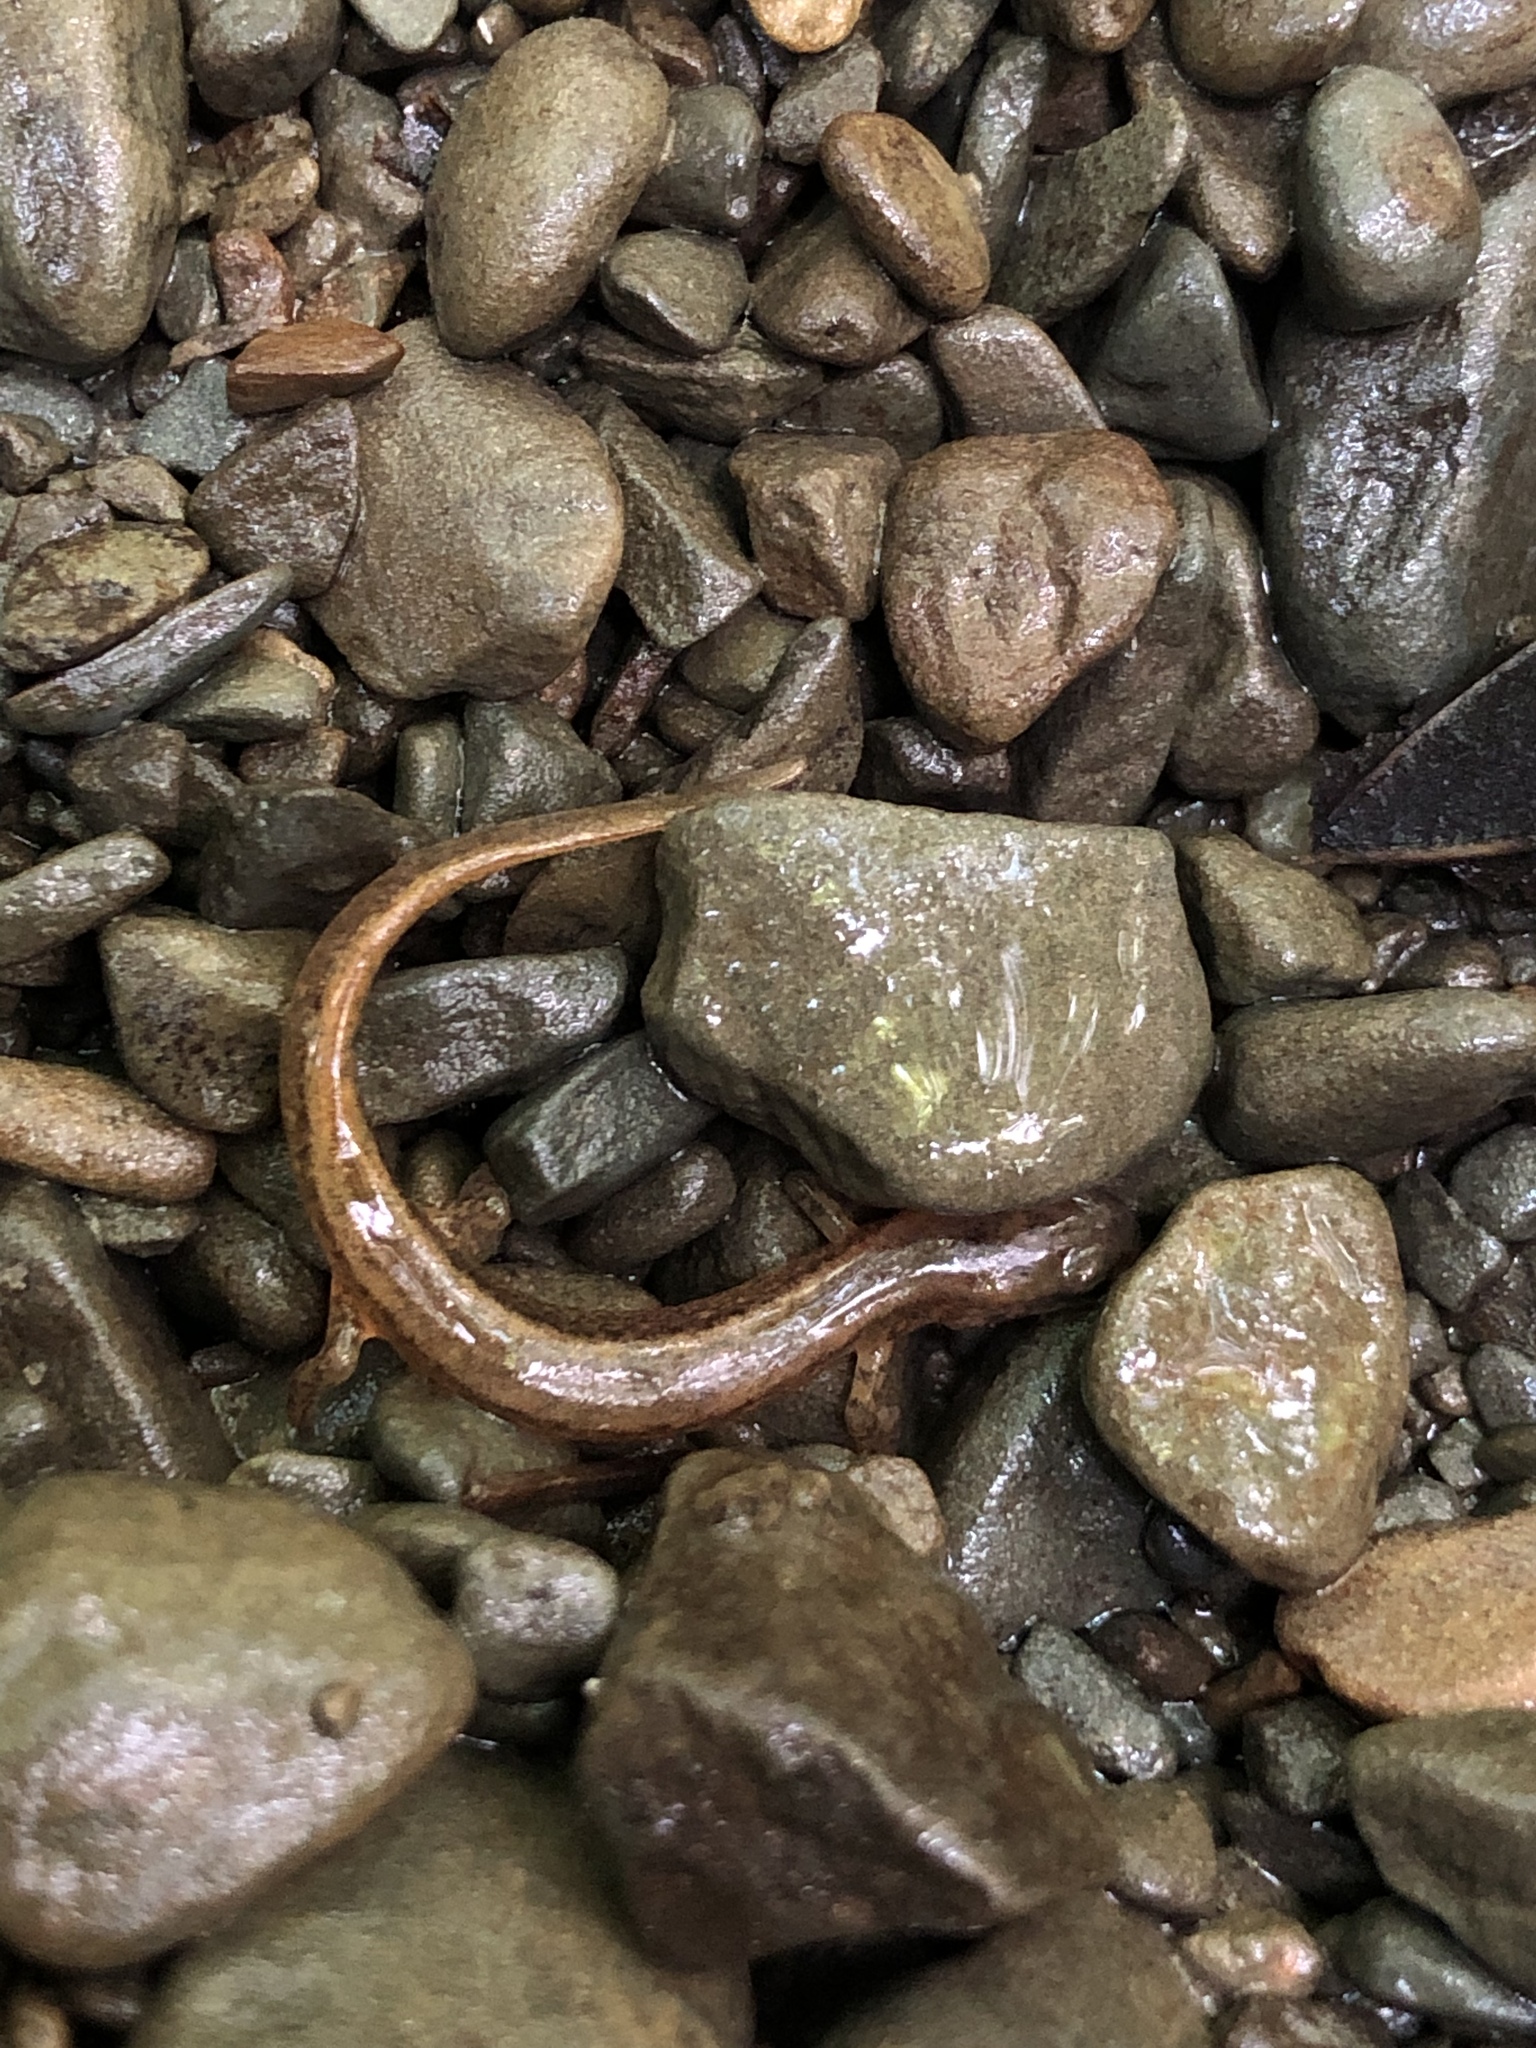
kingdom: Animalia
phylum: Chordata
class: Amphibia
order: Caudata
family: Plethodontidae
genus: Eurycea
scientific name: Eurycea bislineata
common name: Northern two-lined salamander
